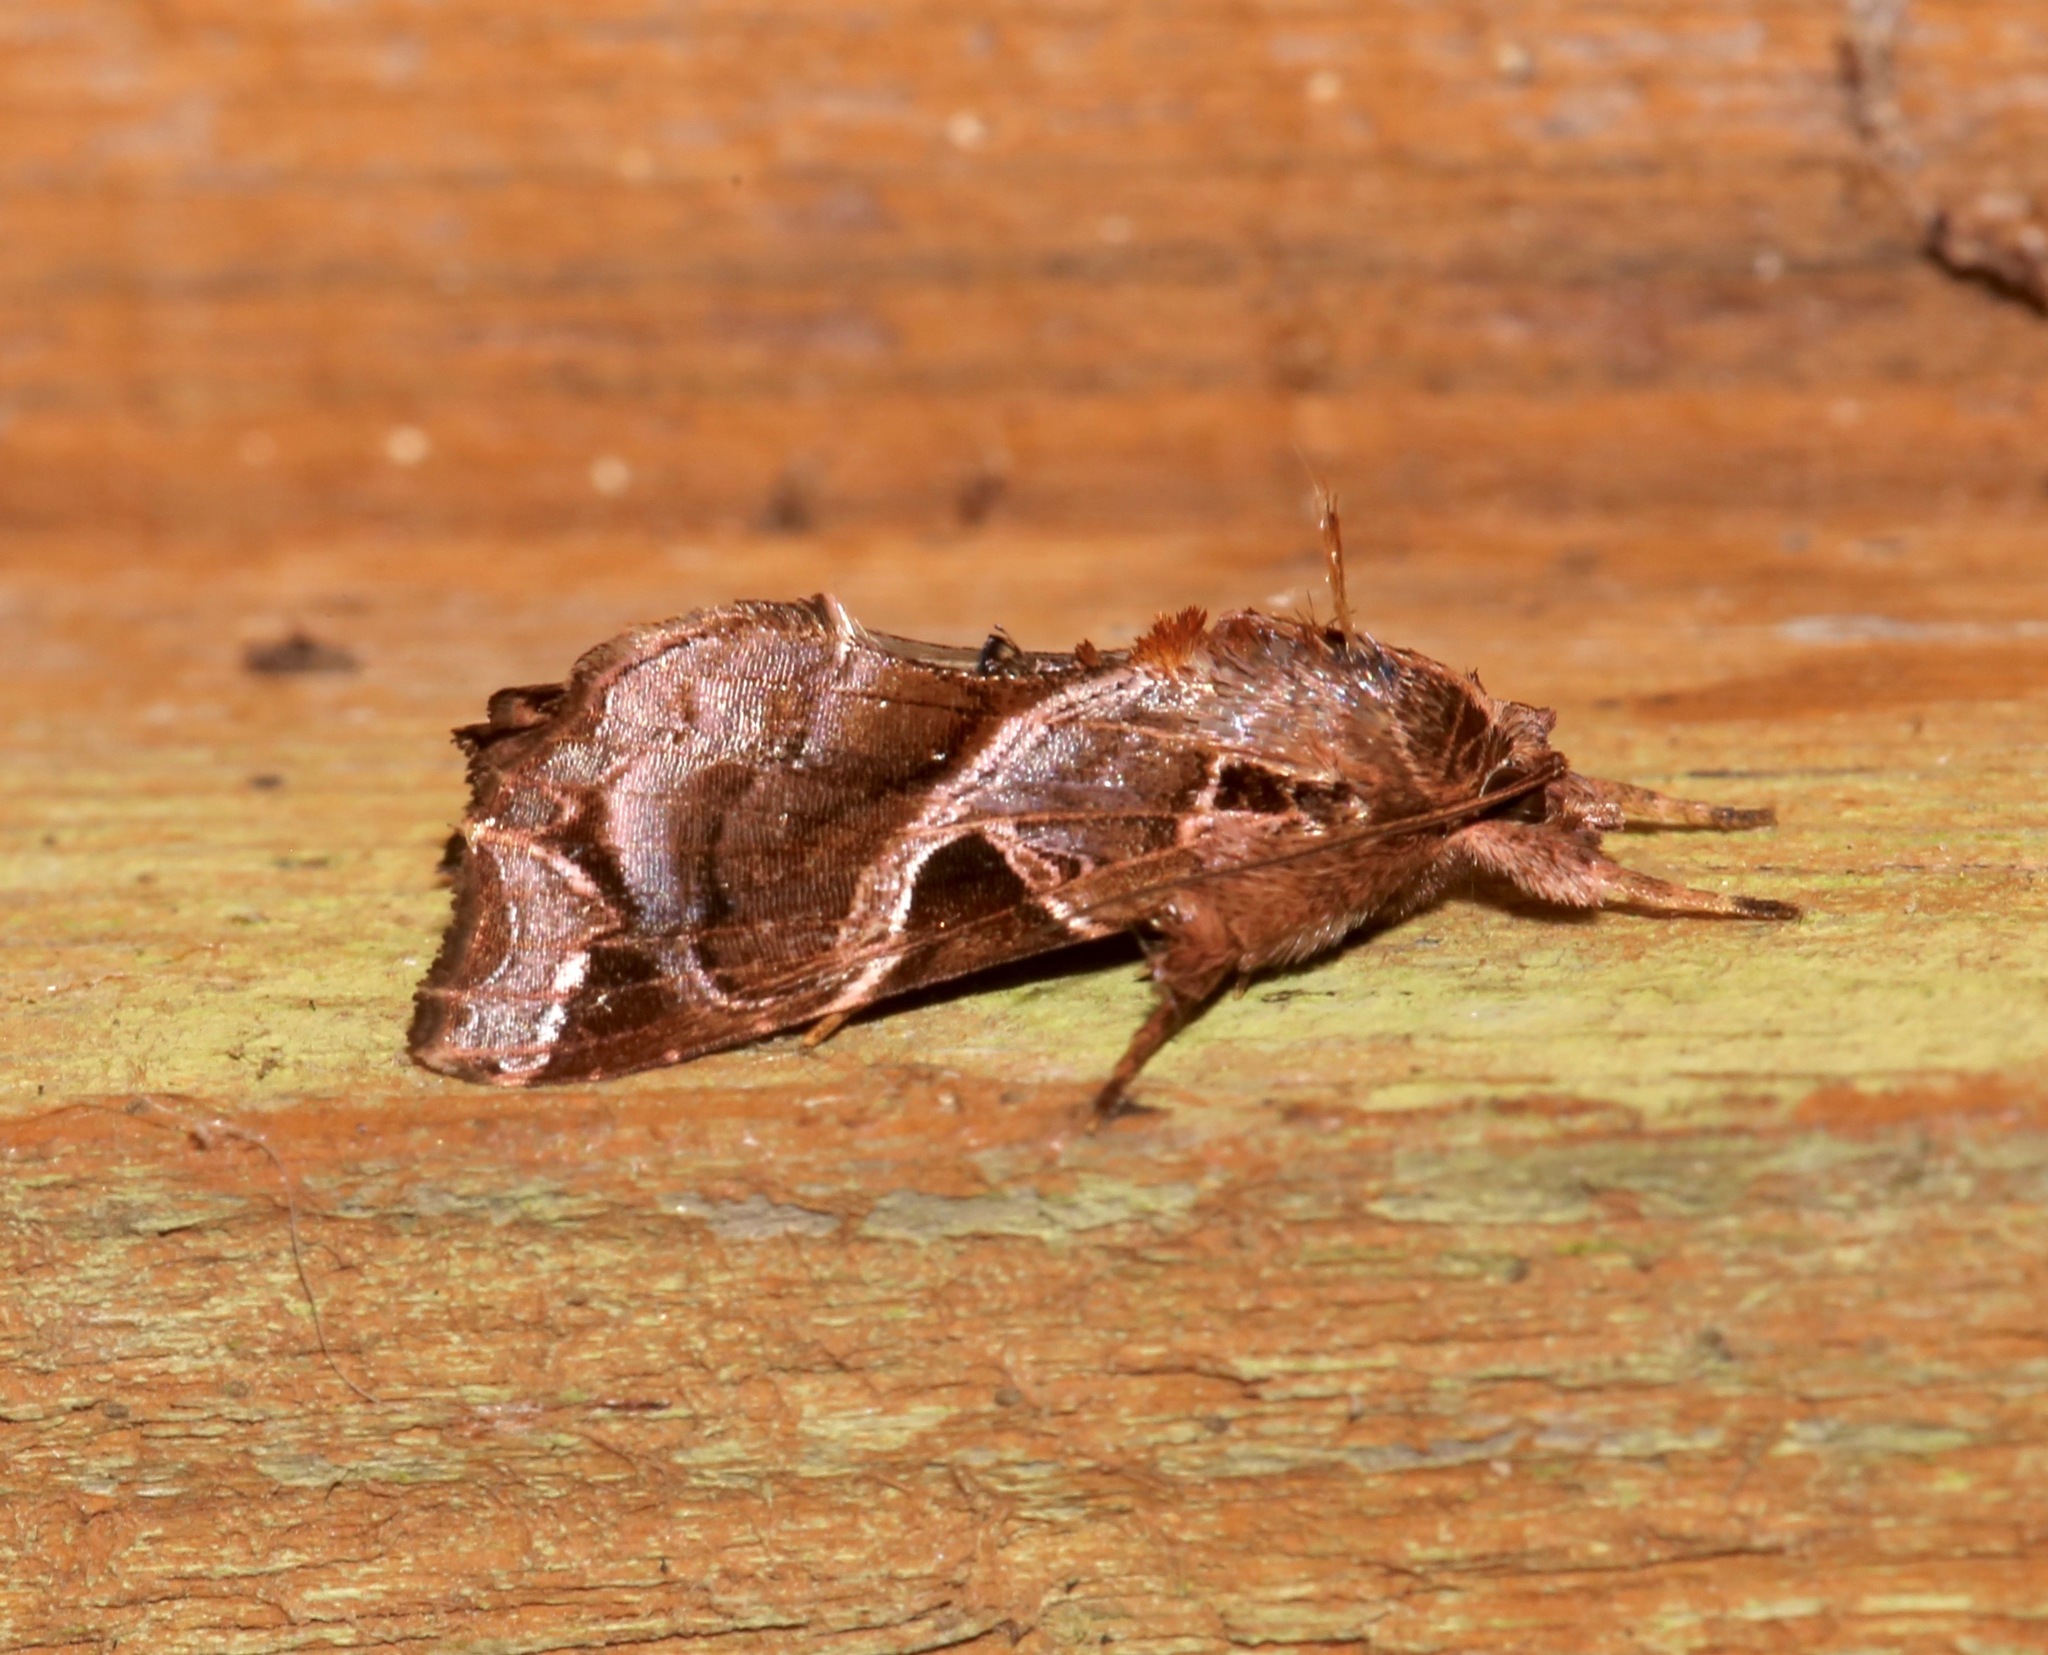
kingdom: Animalia
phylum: Arthropoda
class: Insecta
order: Lepidoptera
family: Noctuidae
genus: Callopistria
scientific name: Callopistria floridensis
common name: Florida fern moth
